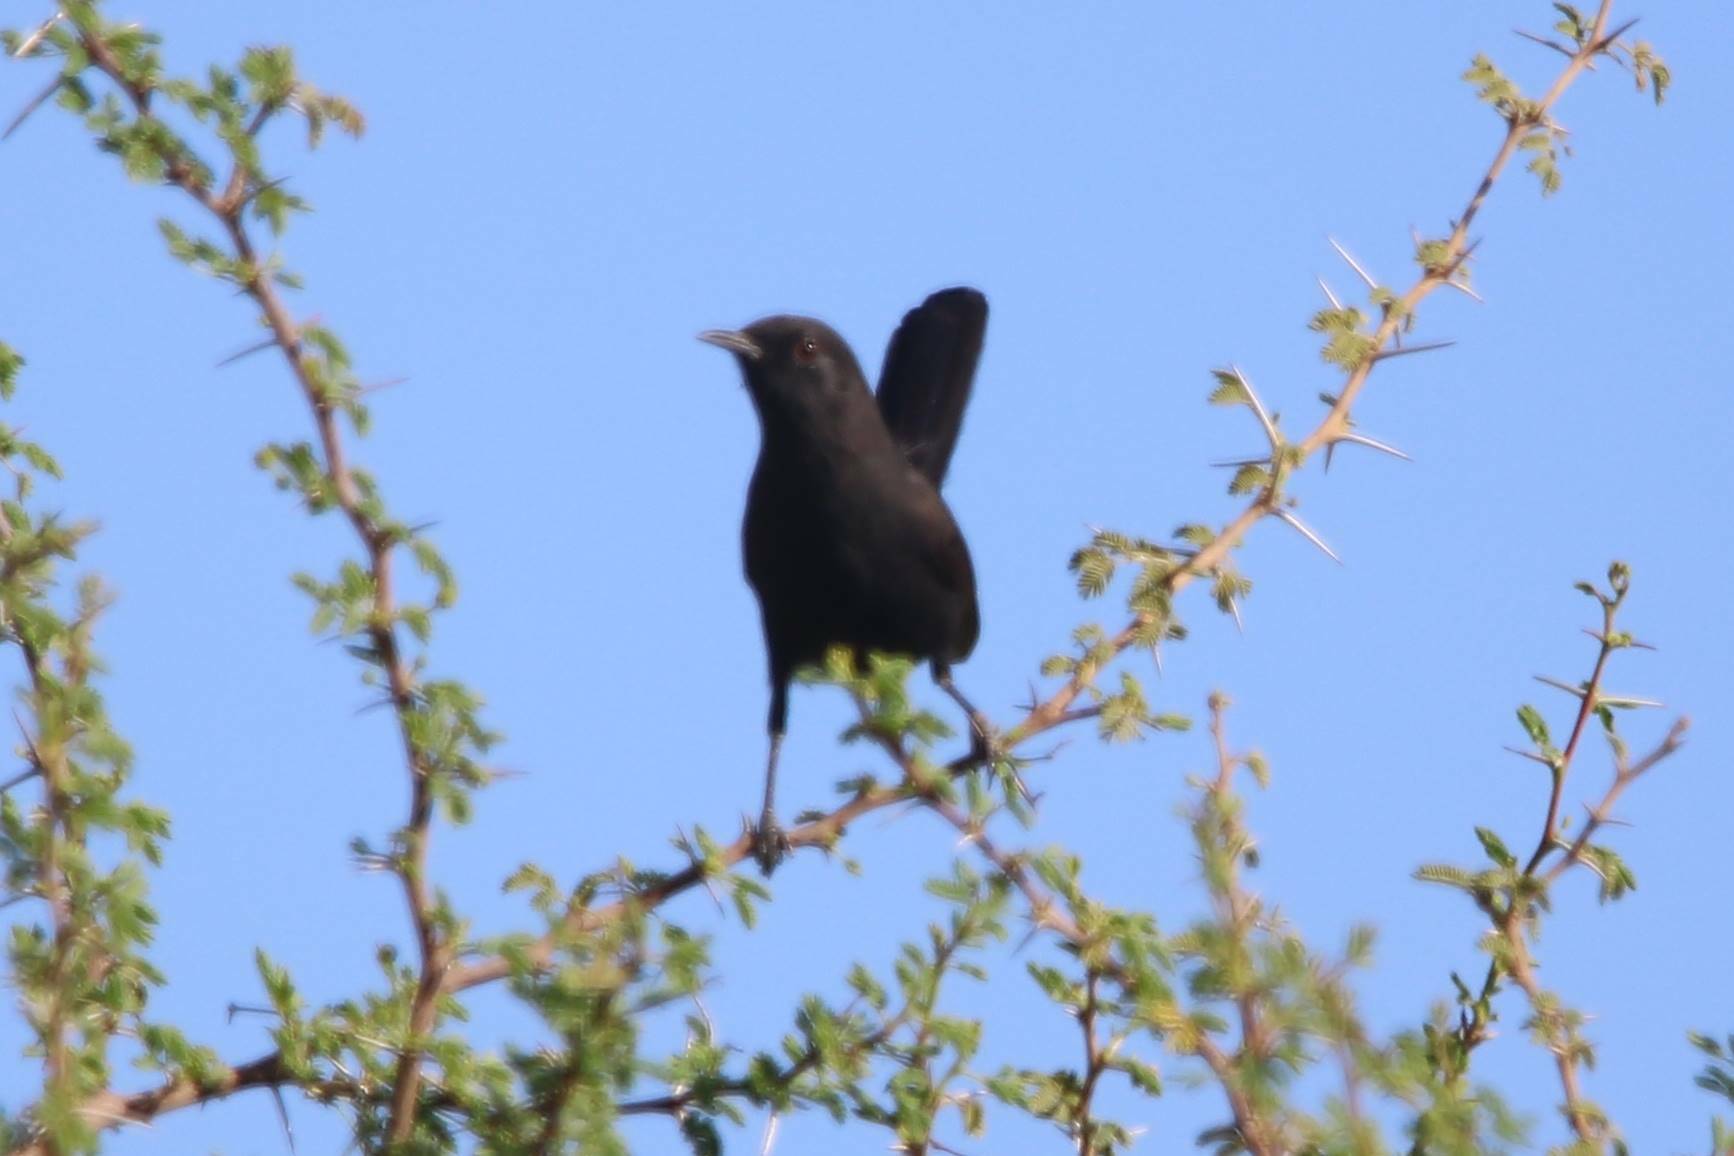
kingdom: Animalia
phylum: Chordata
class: Aves
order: Passeriformes
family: Muscicapidae
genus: Cercotrichas
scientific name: Cercotrichas podobe
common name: Black scrub robin
